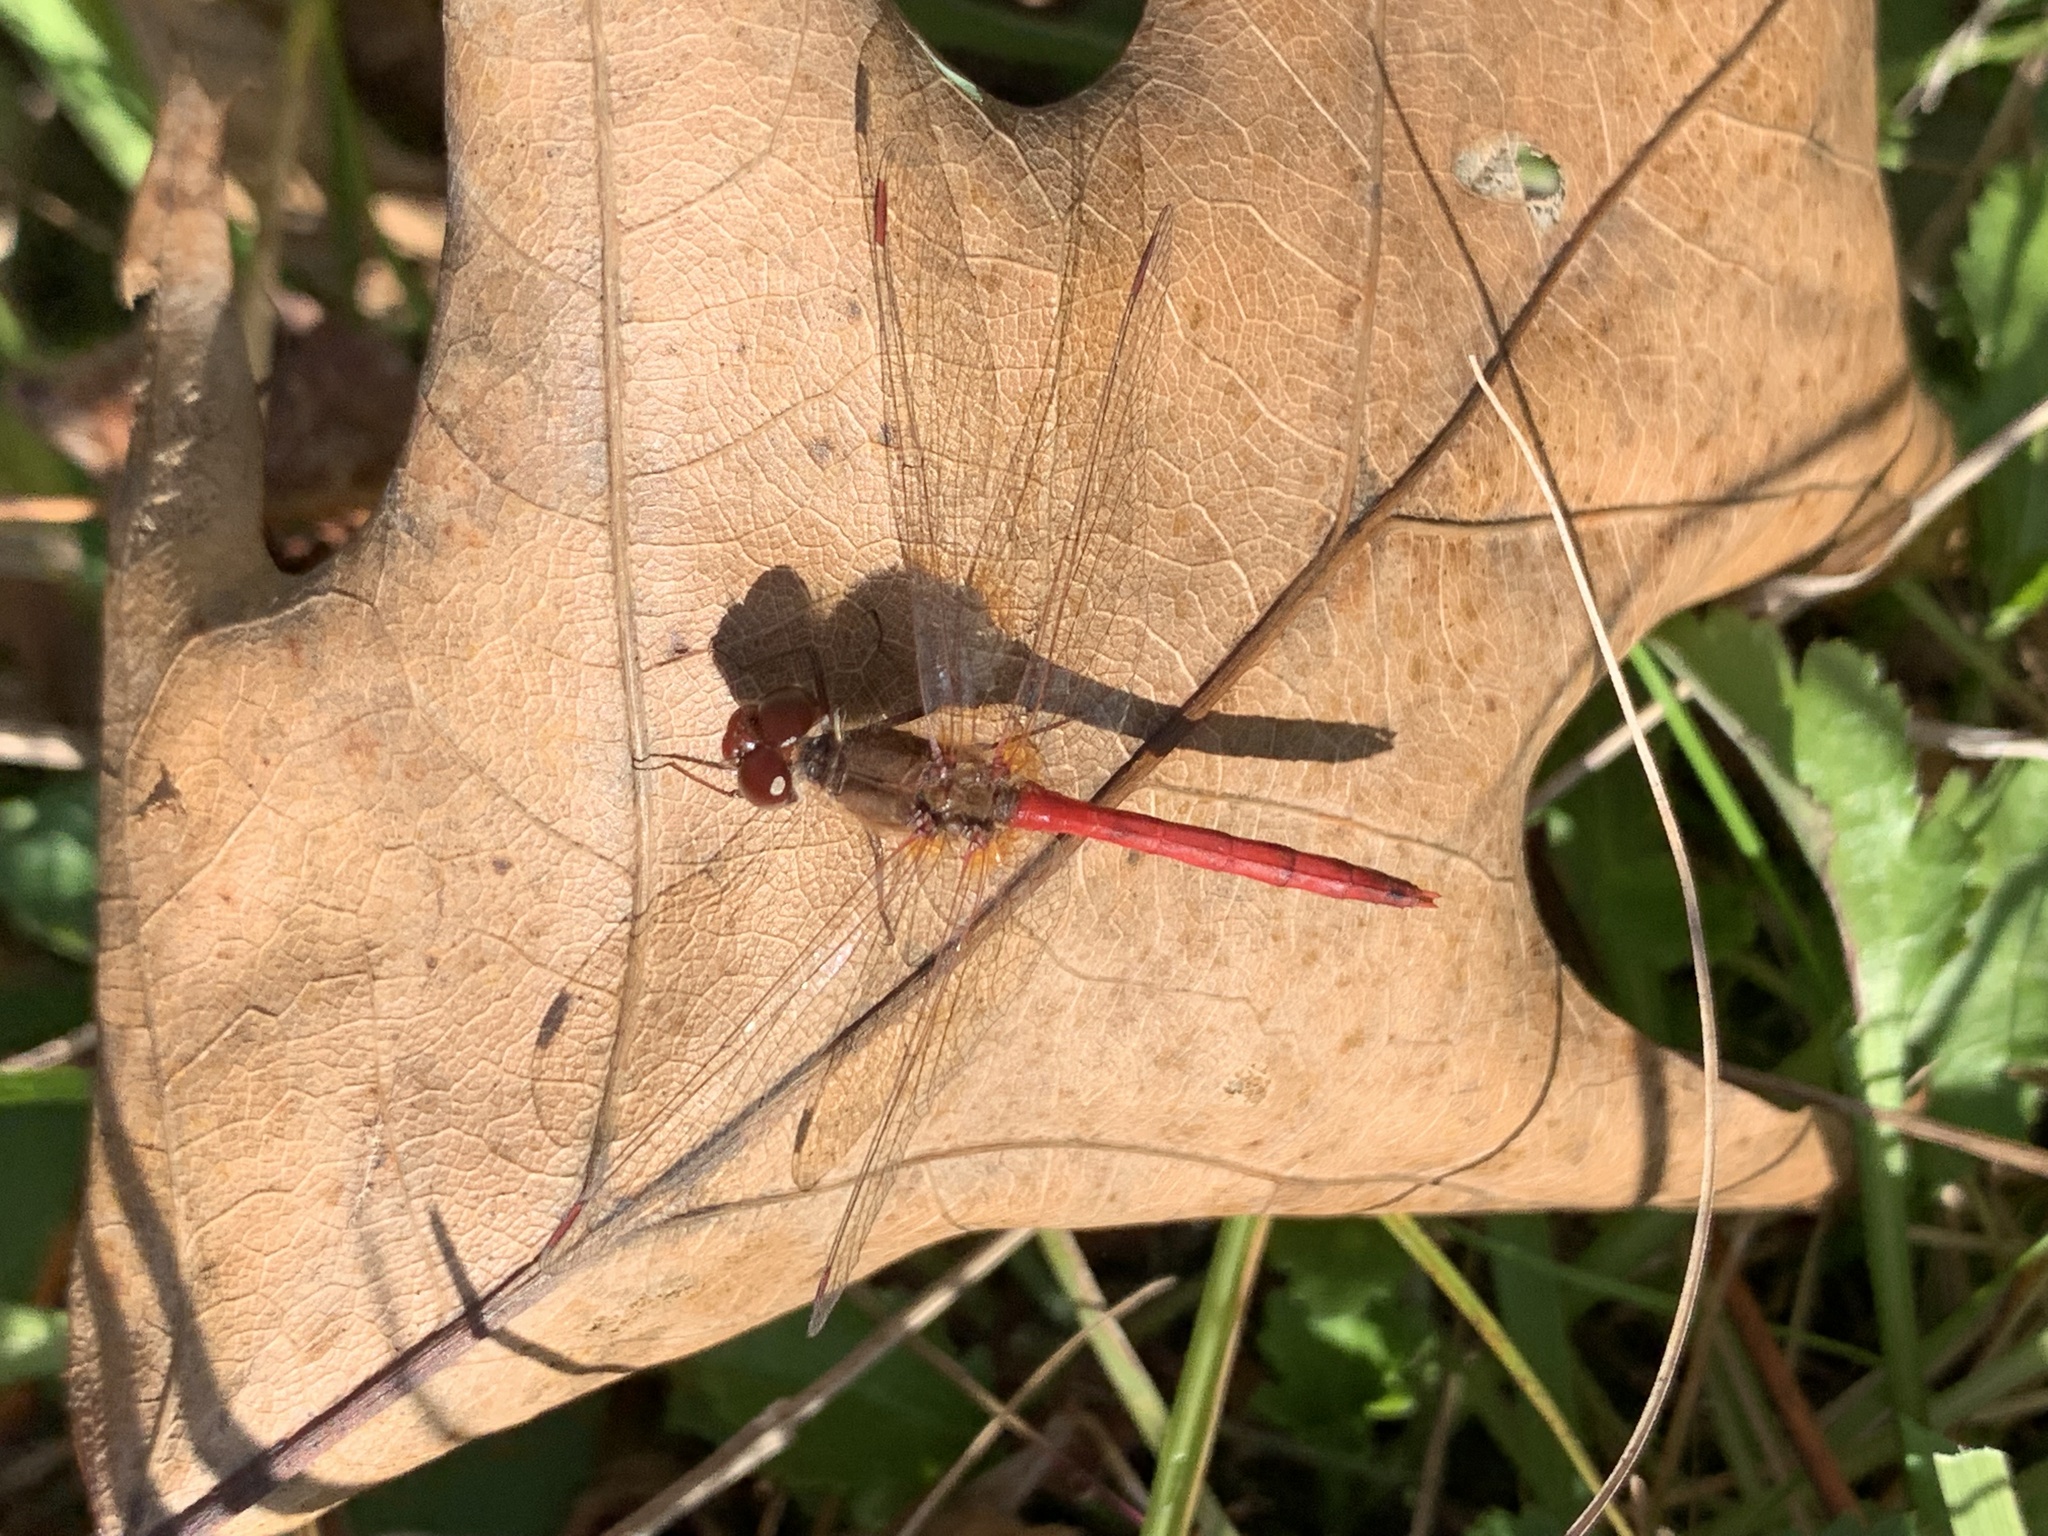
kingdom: Animalia
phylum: Arthropoda
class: Insecta
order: Odonata
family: Libellulidae
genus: Sympetrum
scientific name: Sympetrum vicinum
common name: Autumn meadowhawk
